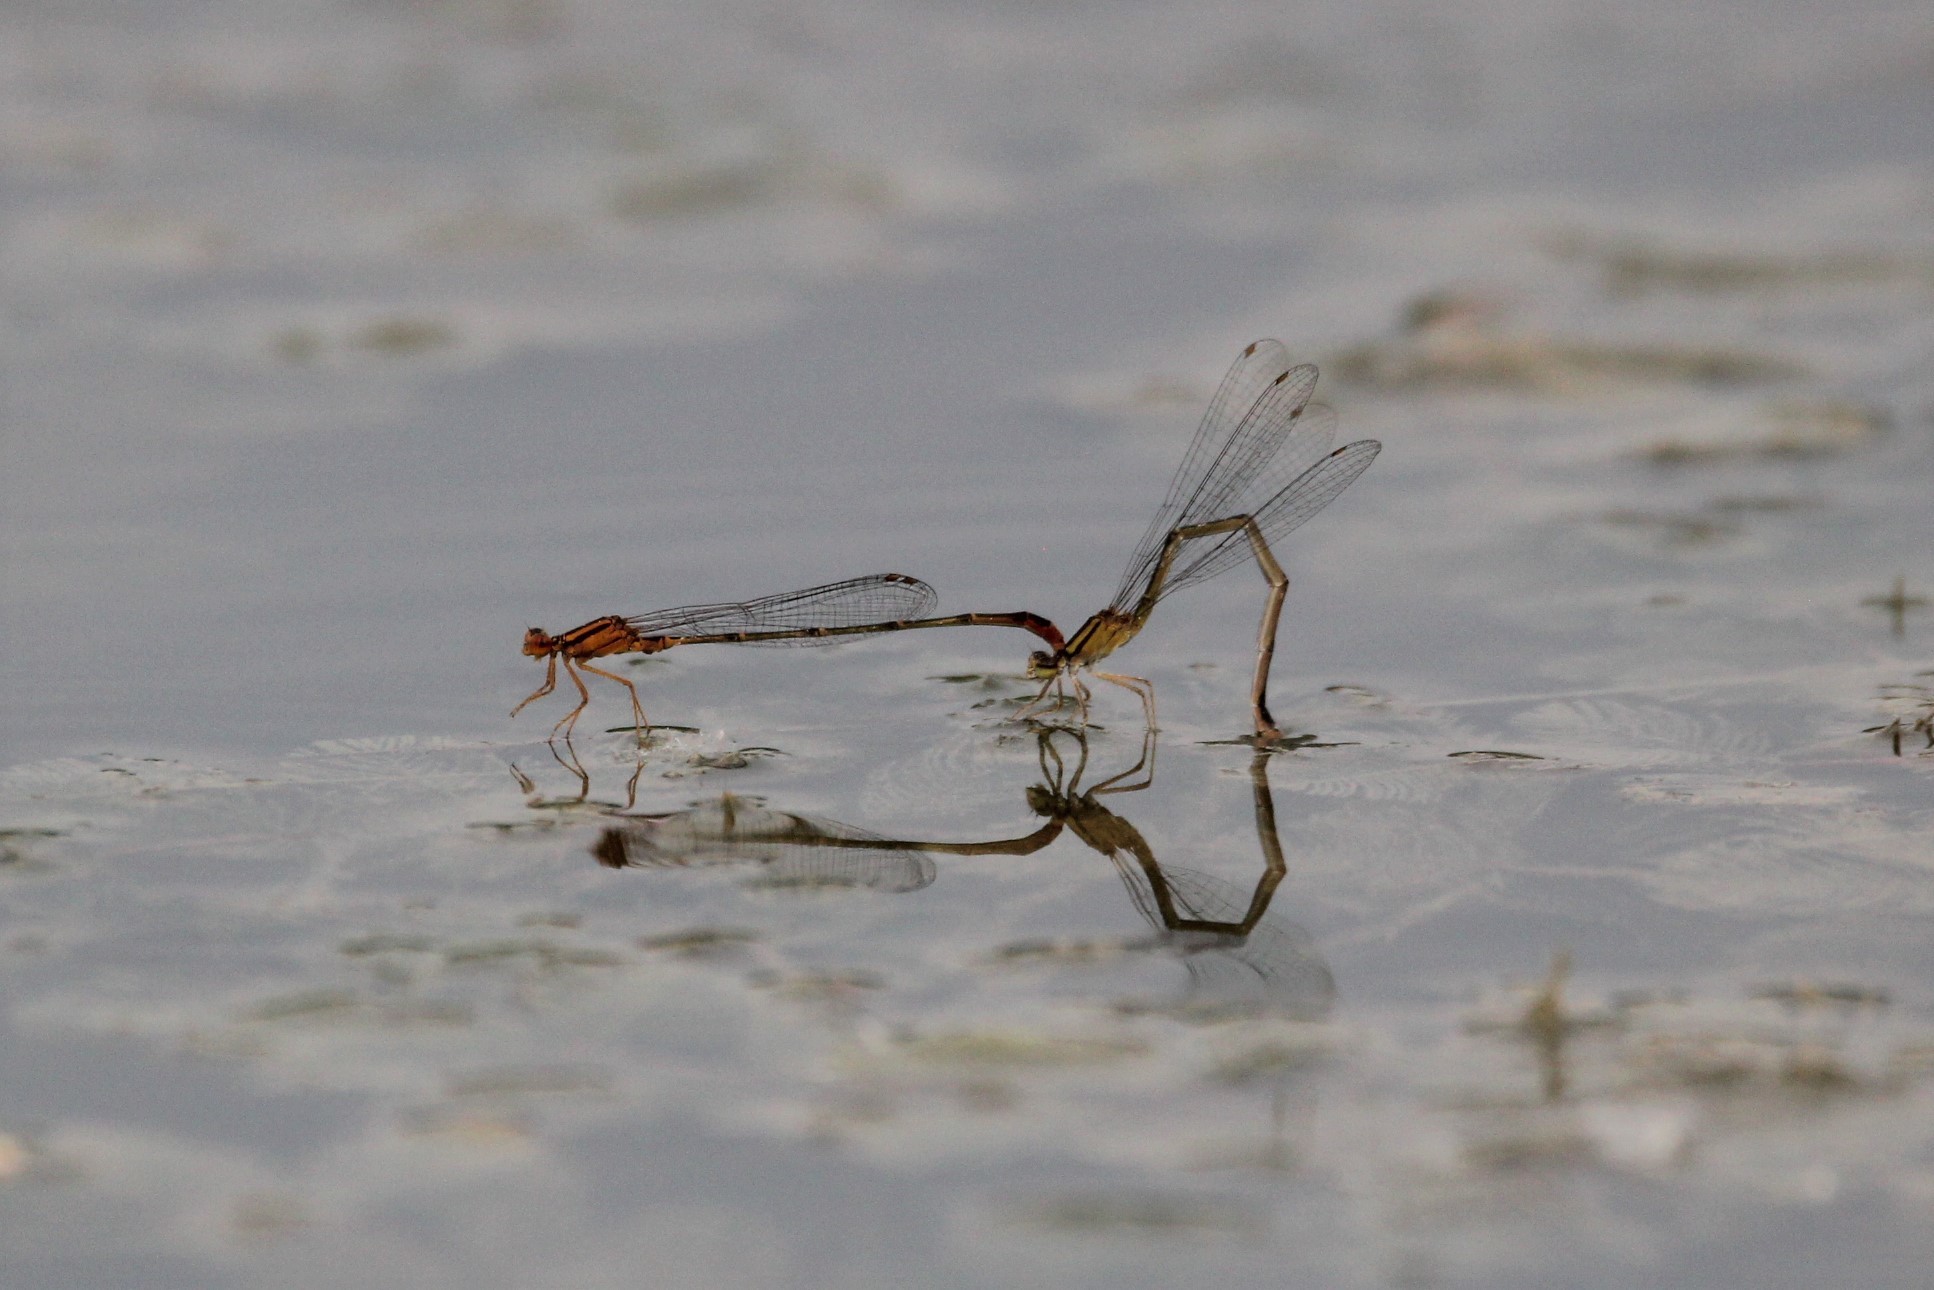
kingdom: Animalia
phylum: Arthropoda
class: Insecta
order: Odonata
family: Coenagrionidae
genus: Enallagma
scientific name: Enallagma signatum
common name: Orange bluet
